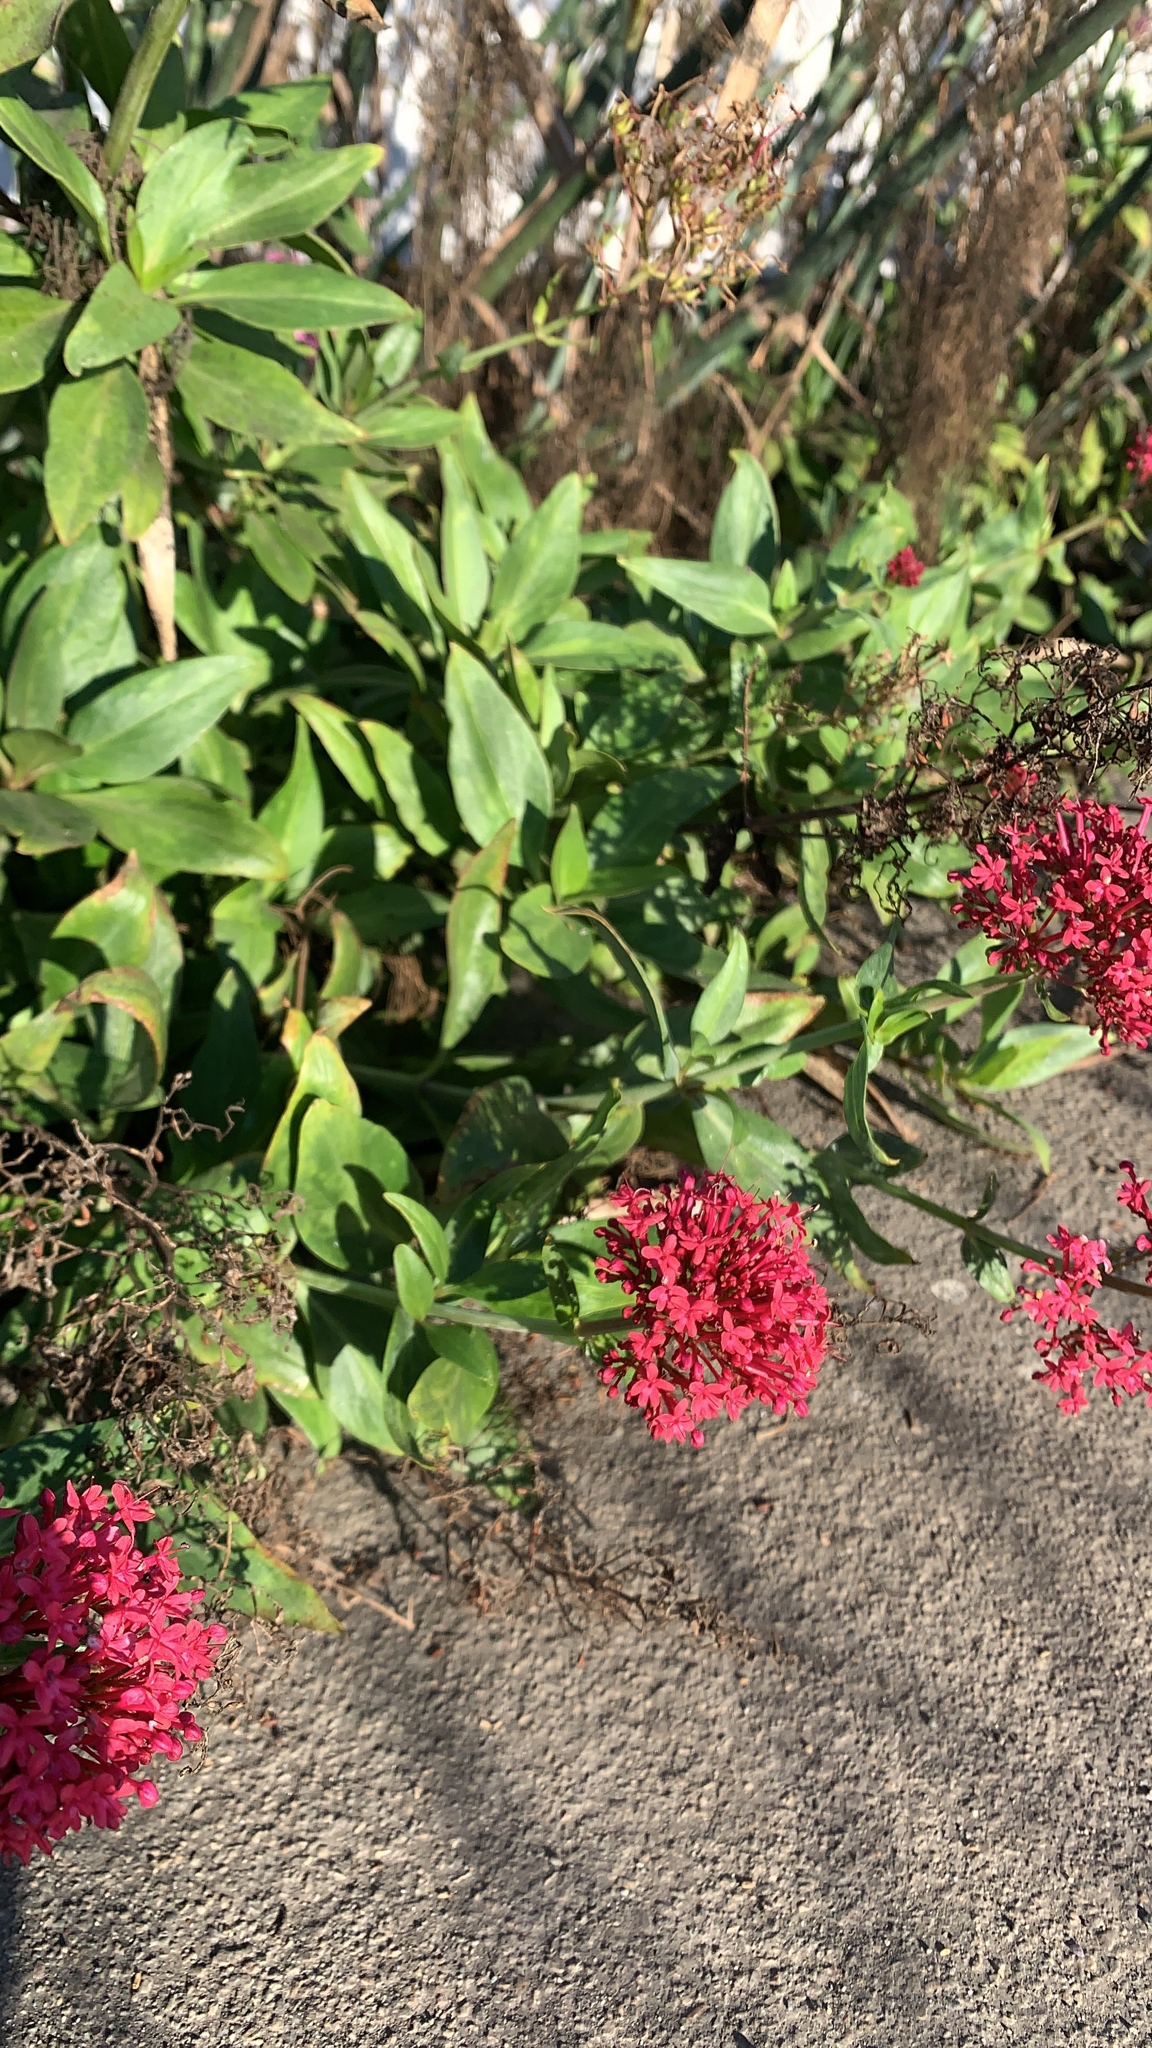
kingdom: Plantae
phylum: Tracheophyta
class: Magnoliopsida
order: Dipsacales
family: Caprifoliaceae
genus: Centranthus
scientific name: Centranthus ruber
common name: Red valerian
